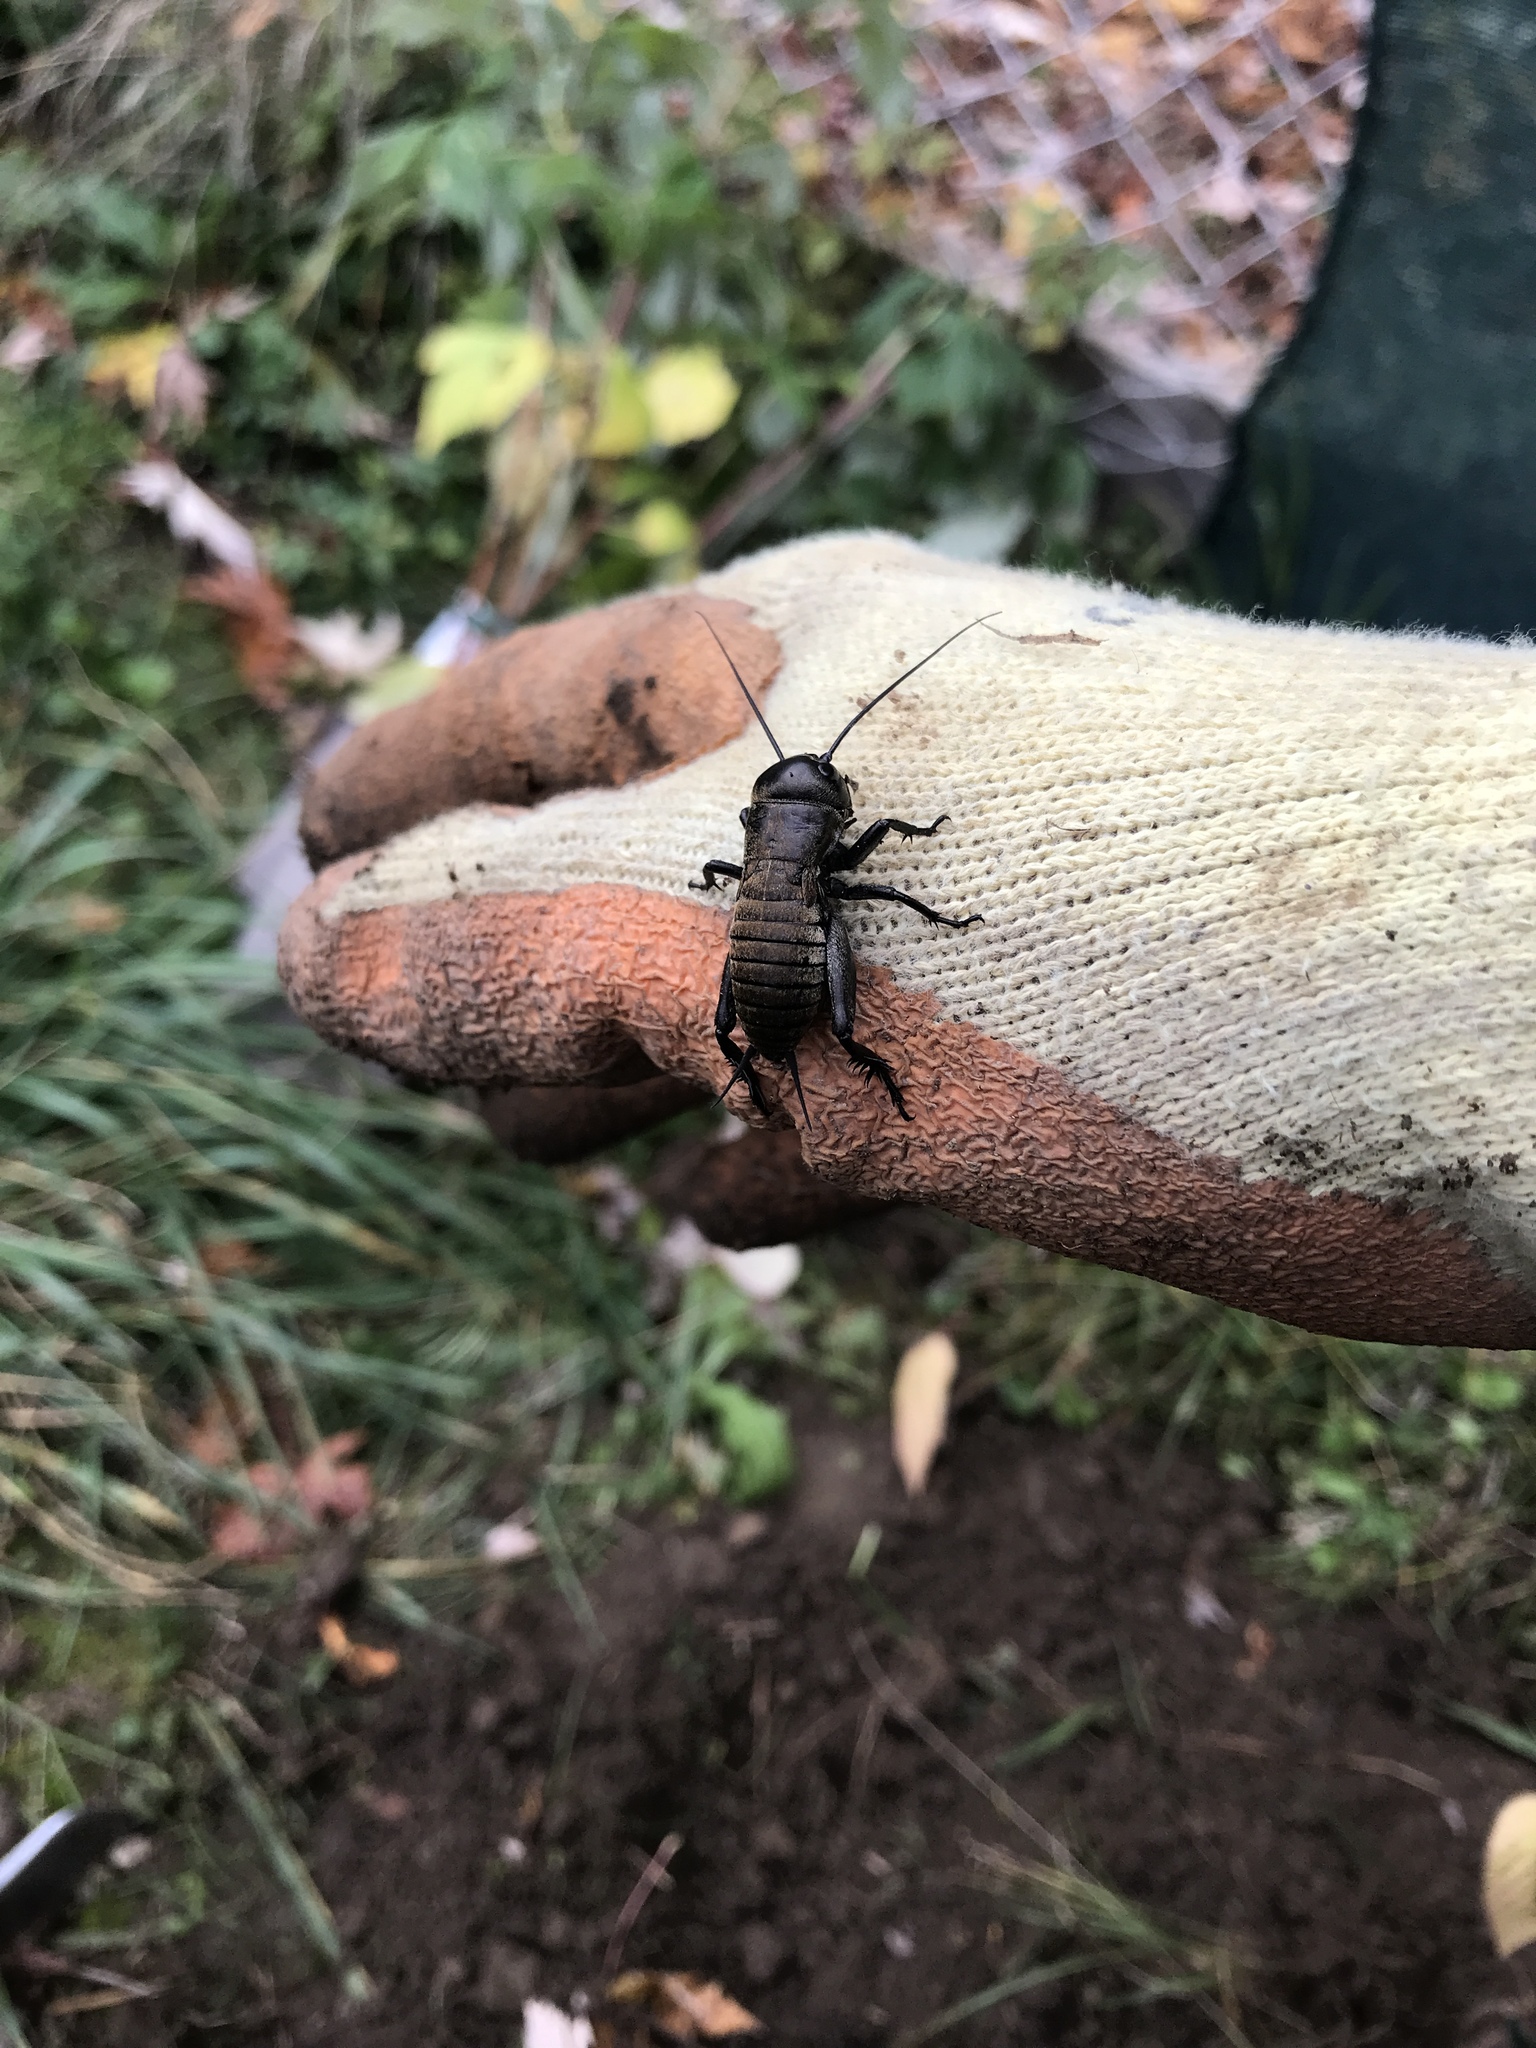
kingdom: Animalia
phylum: Arthropoda
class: Insecta
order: Orthoptera
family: Gryllidae
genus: Gryllus
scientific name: Gryllus campestris
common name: Field cricket
